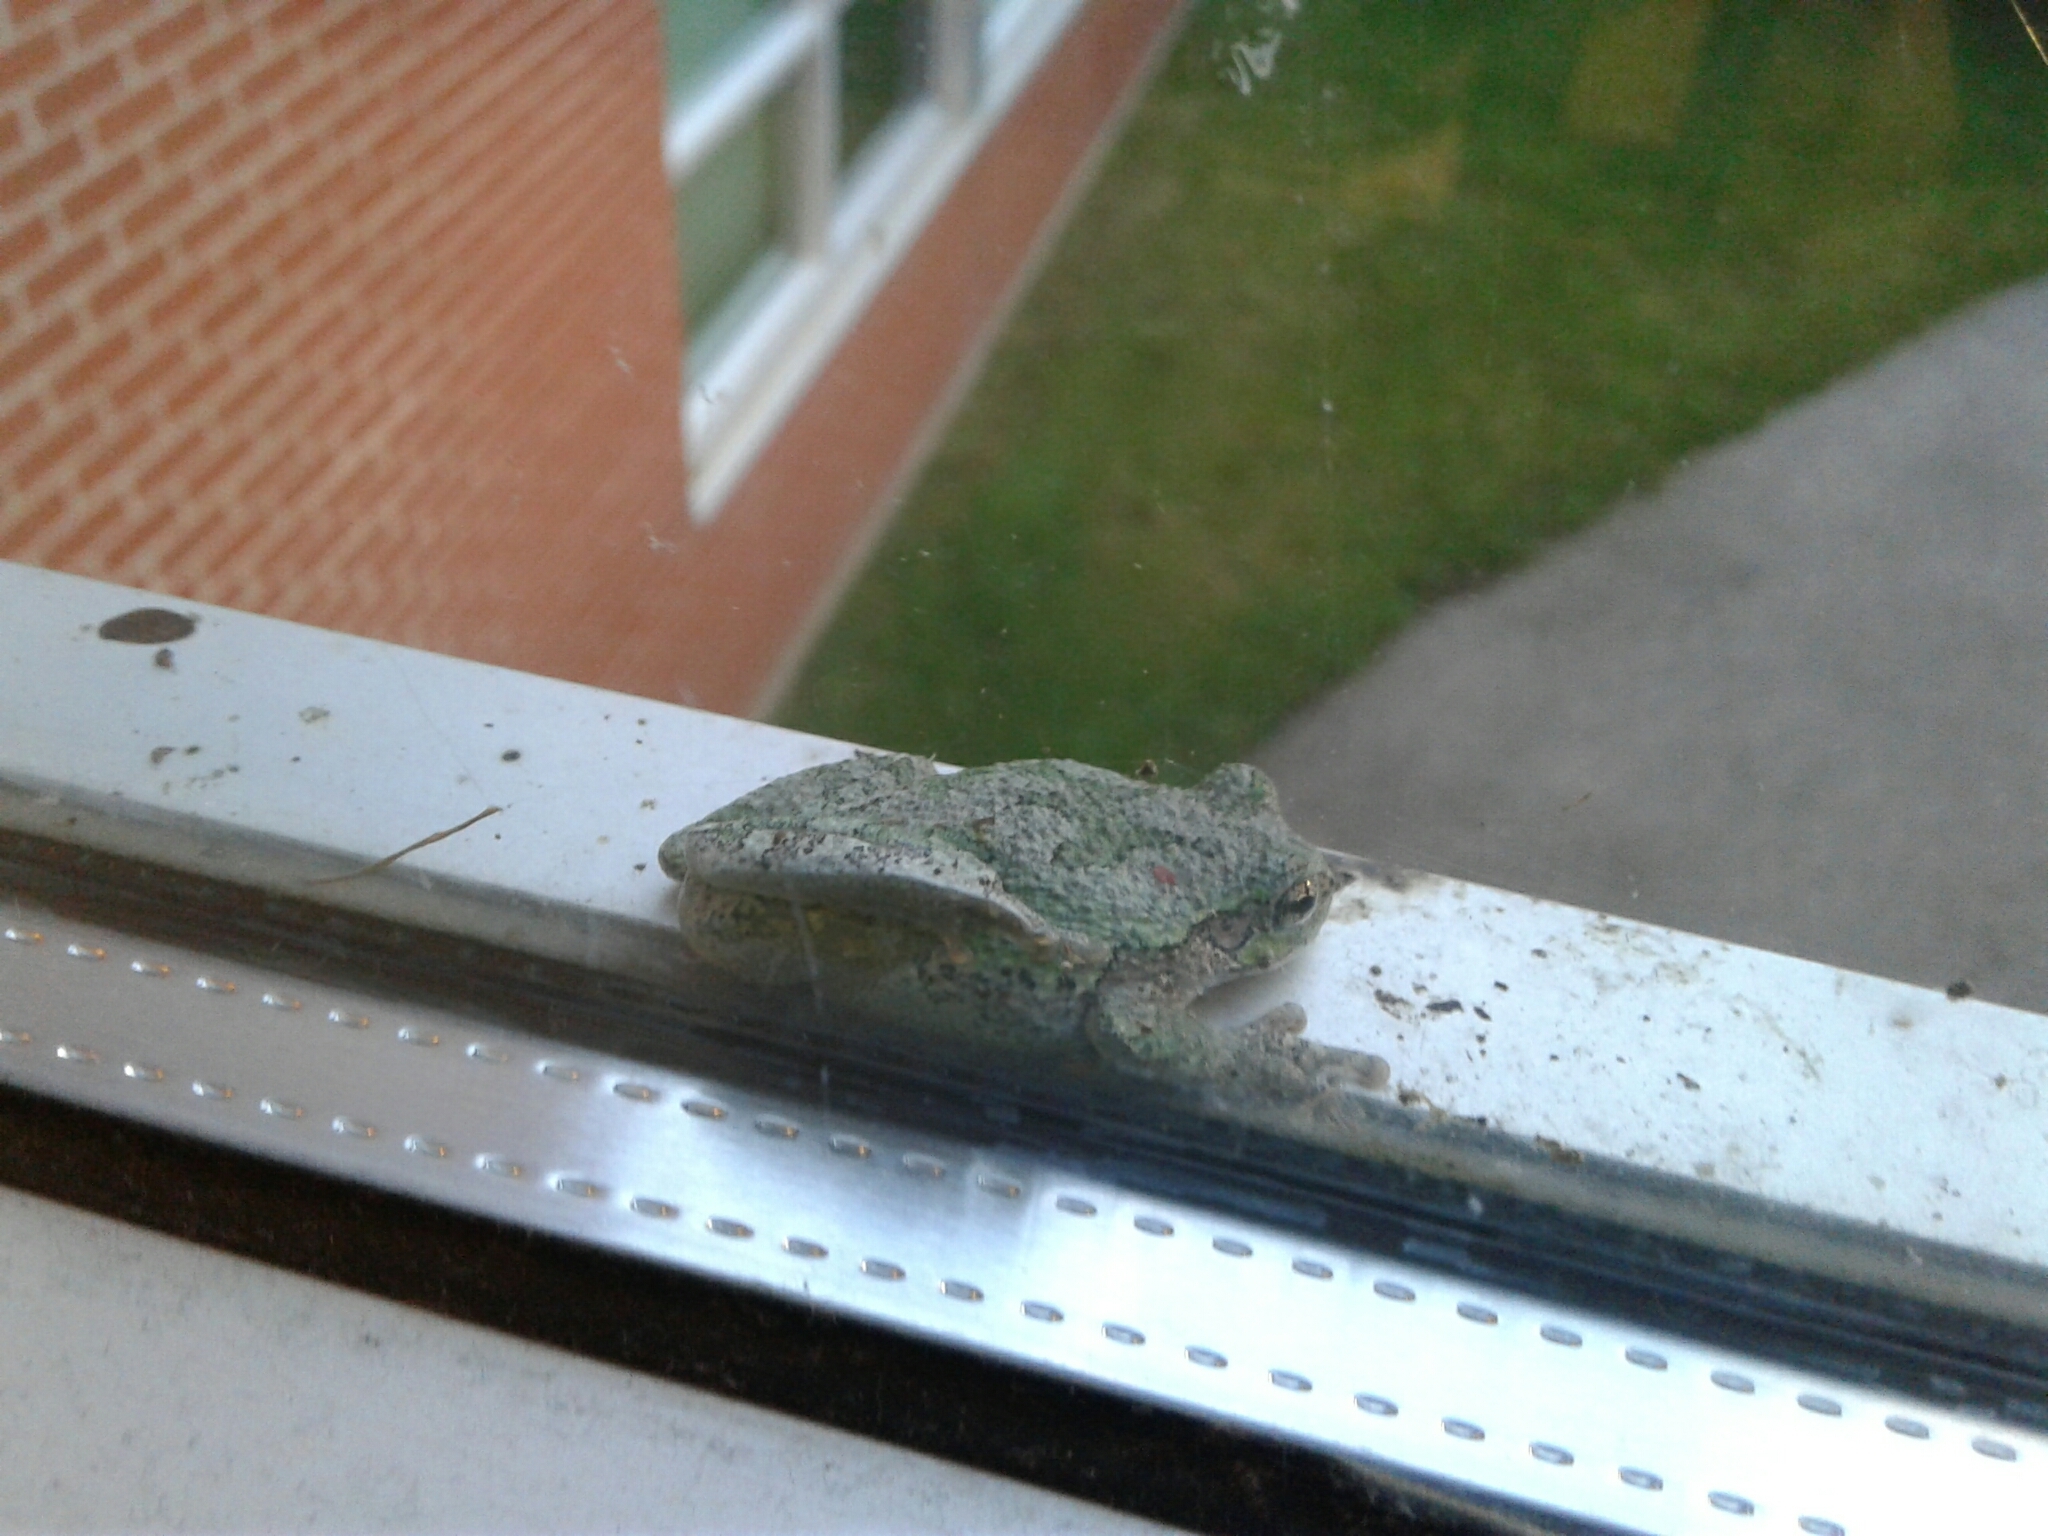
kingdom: Animalia
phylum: Chordata
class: Amphibia
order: Anura
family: Hylidae
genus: Dryophytes
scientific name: Dryophytes versicolor
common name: Gray treefrog
